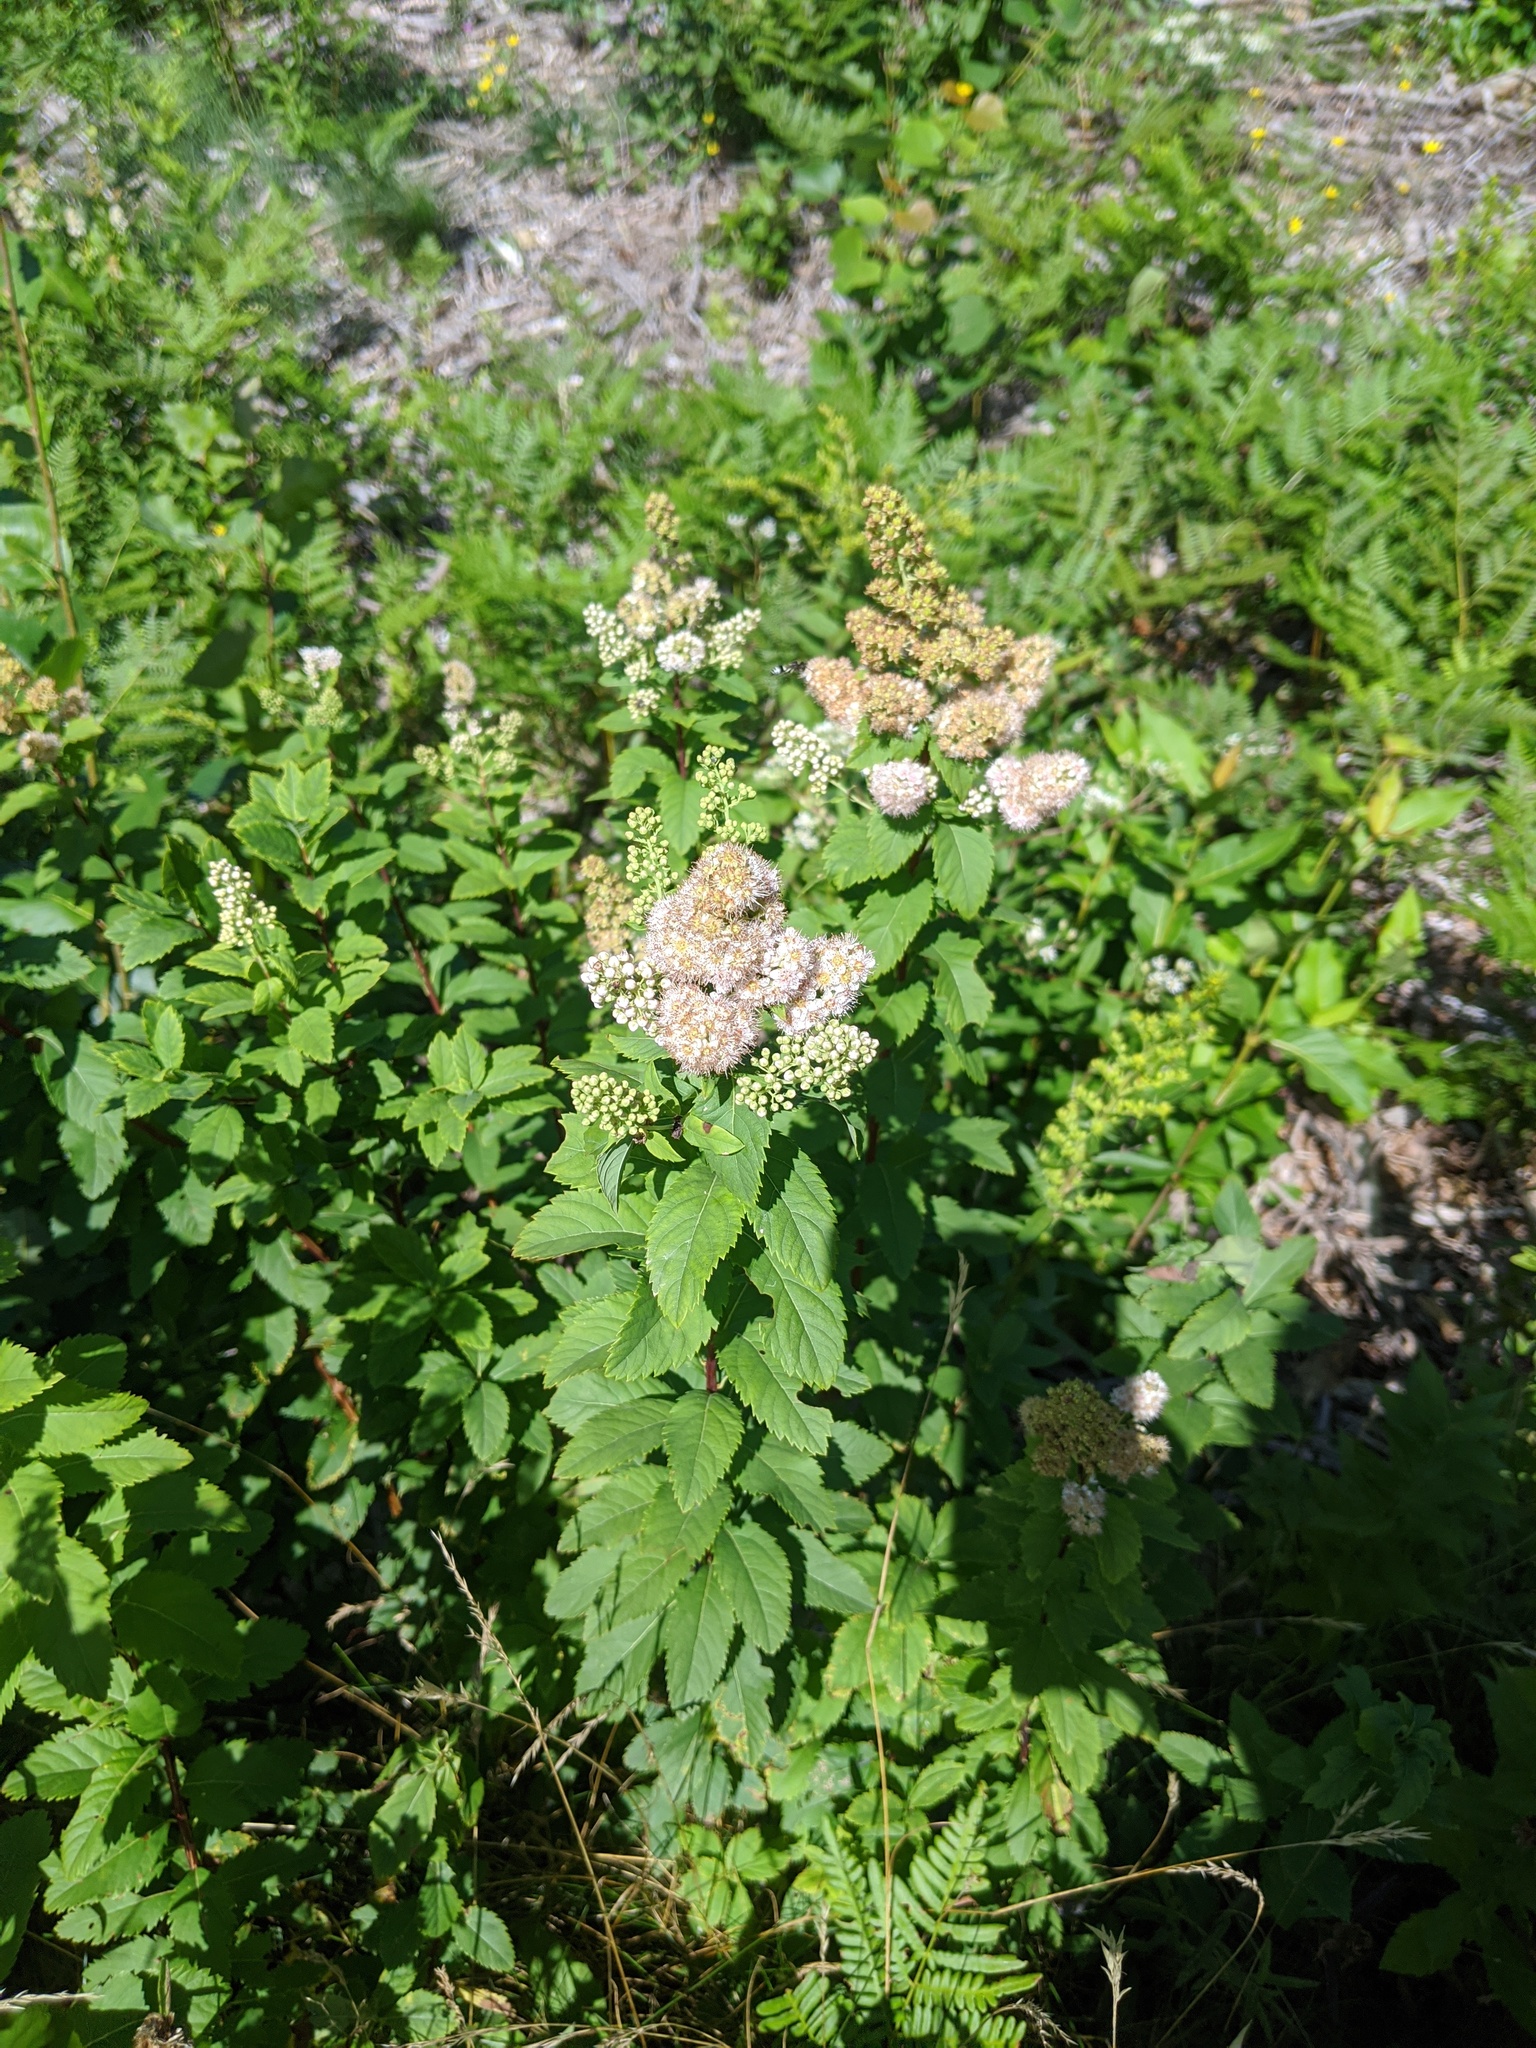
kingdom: Plantae
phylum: Tracheophyta
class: Magnoliopsida
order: Rosales
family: Rosaceae
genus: Spiraea
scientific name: Spiraea alba
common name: Pale bridewort
